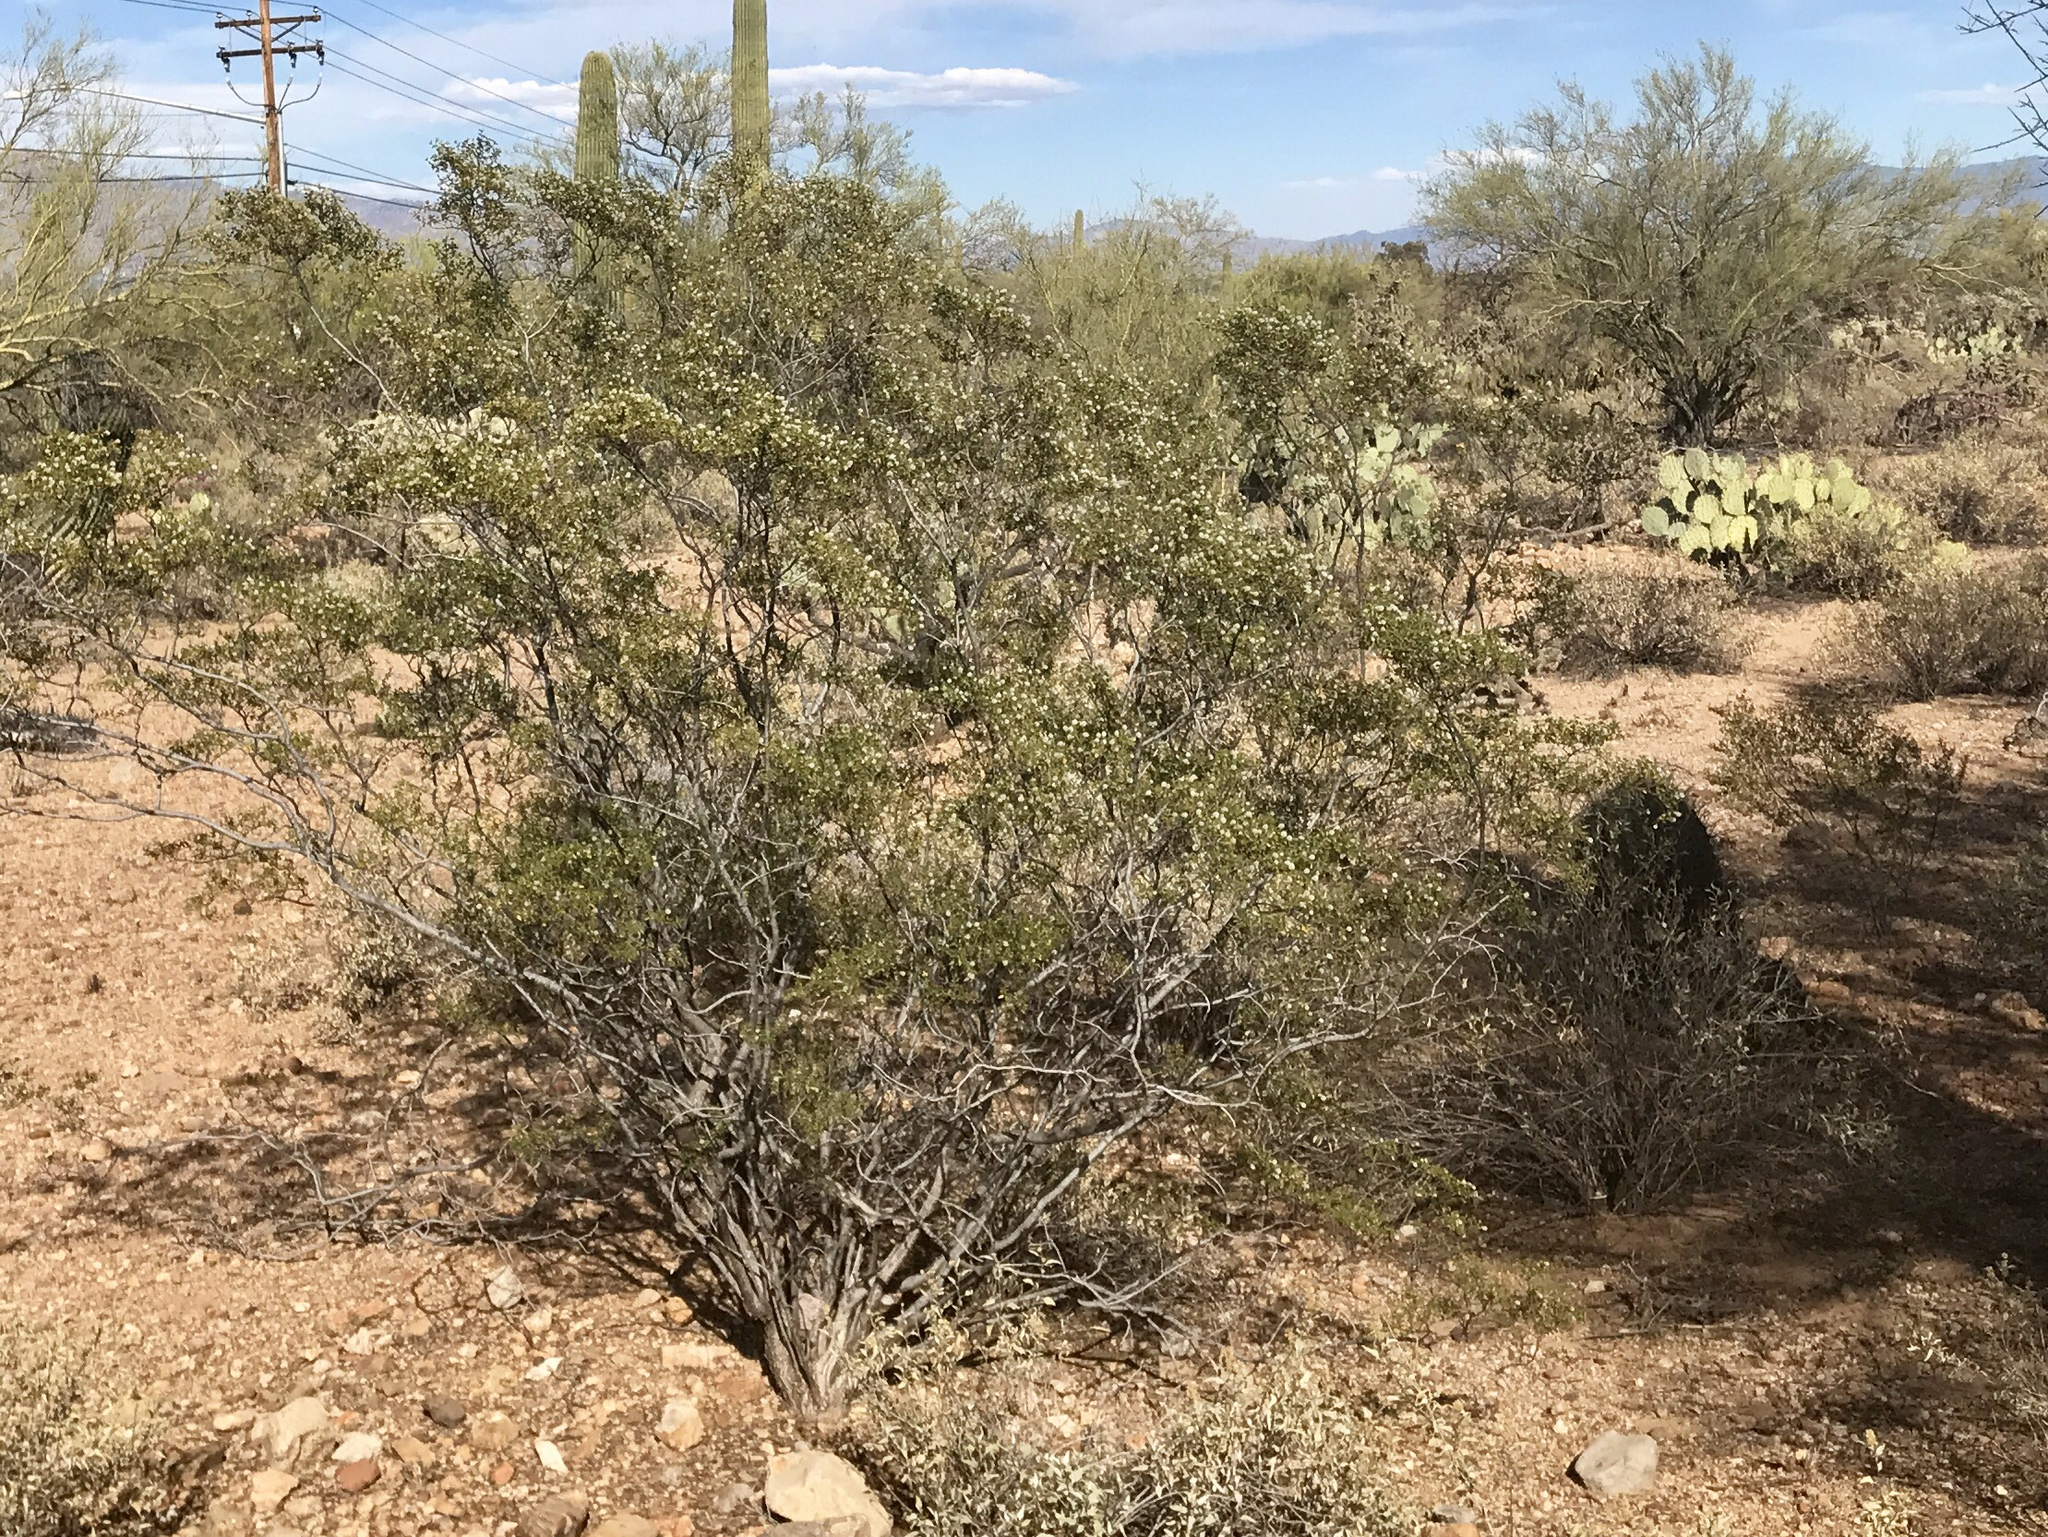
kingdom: Plantae
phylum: Tracheophyta
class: Magnoliopsida
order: Zygophyllales
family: Zygophyllaceae
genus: Larrea
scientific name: Larrea tridentata
